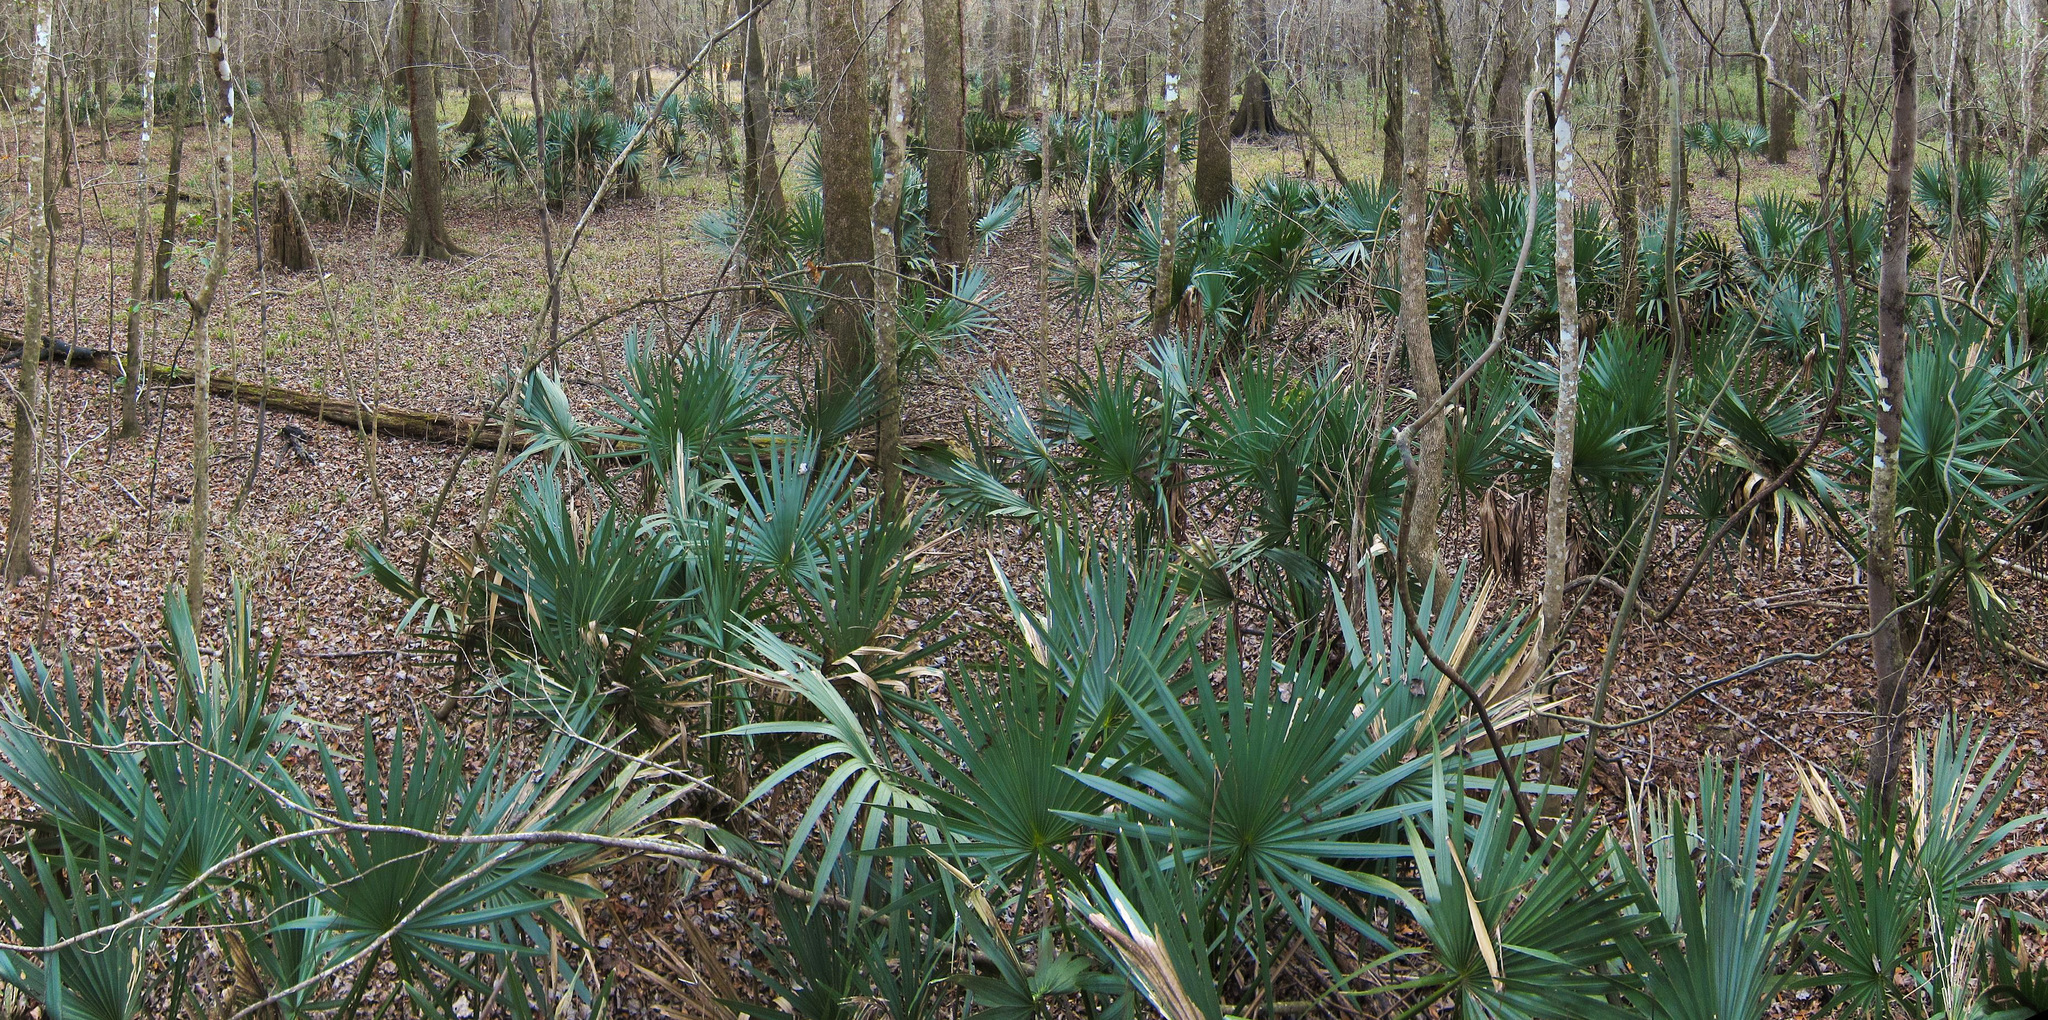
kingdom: Plantae
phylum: Tracheophyta
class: Liliopsida
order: Arecales
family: Arecaceae
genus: Sabal
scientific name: Sabal minor
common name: Dwarf palmetto
